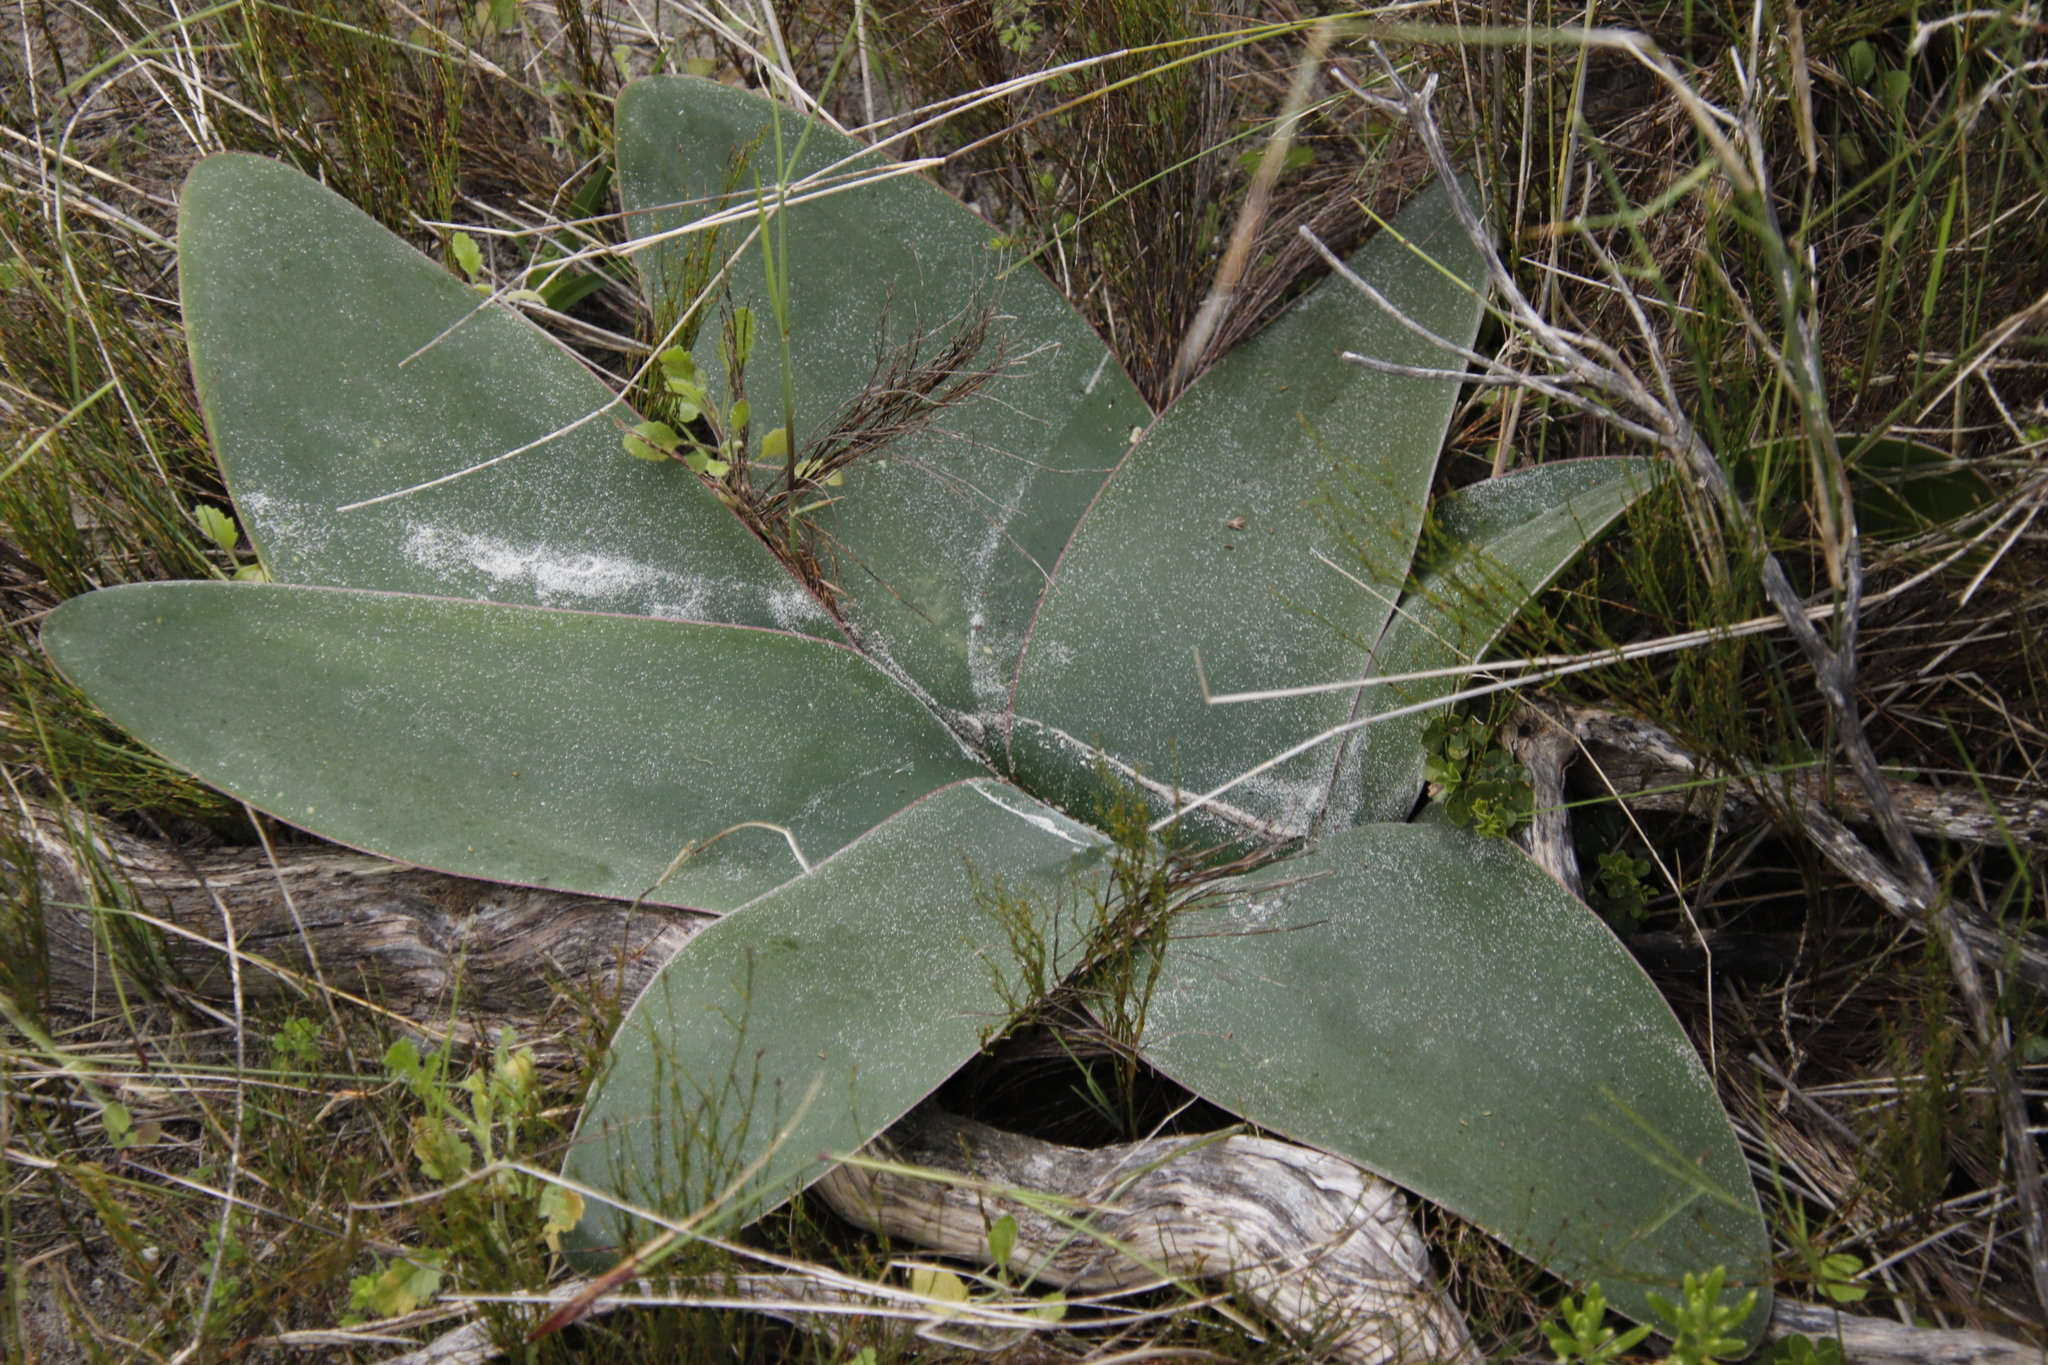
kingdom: Plantae
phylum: Tracheophyta
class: Liliopsida
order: Asparagales
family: Amaryllidaceae
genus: Brunsvigia
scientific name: Brunsvigia orientalis
